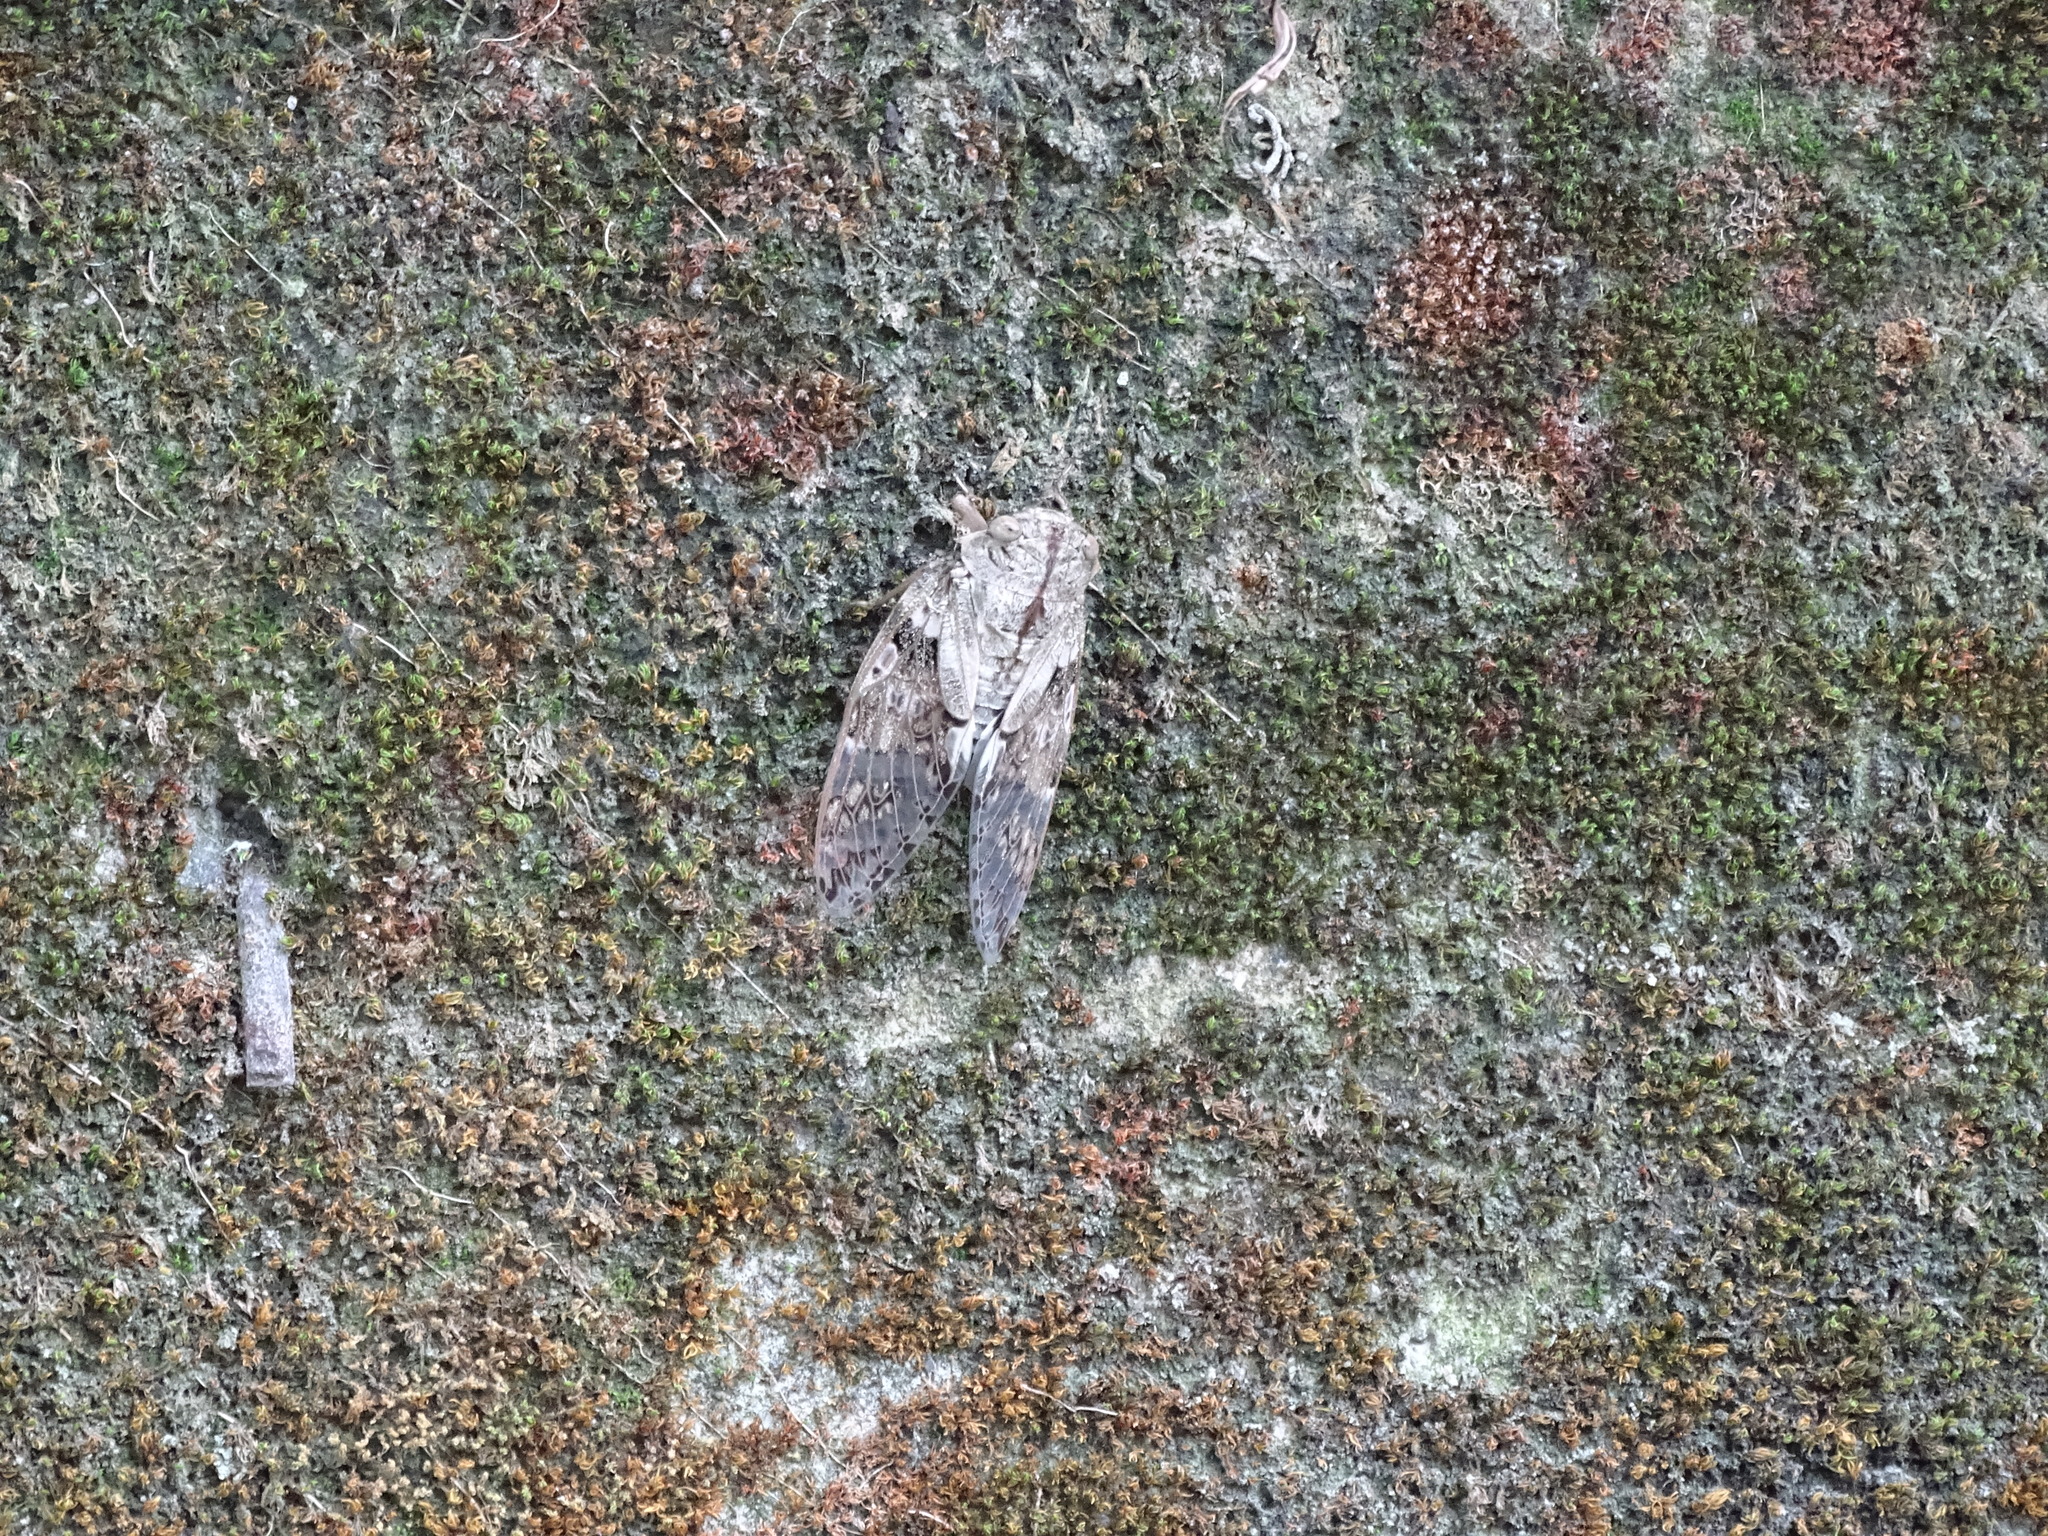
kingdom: Animalia
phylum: Arthropoda
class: Insecta
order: Hemiptera
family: Cicadidae
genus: Platypleura
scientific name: Platypleura takasagona
